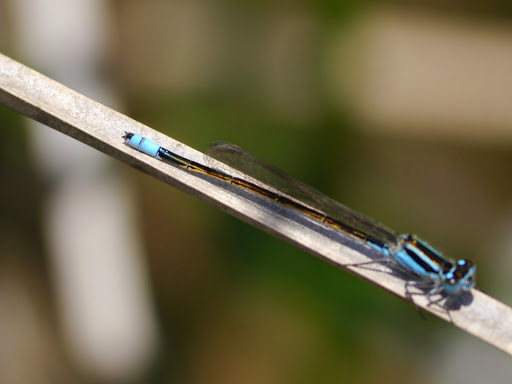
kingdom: Animalia
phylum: Arthropoda
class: Insecta
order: Odonata
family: Coenagrionidae
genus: Ischnura
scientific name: Ischnura ramburii
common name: Rambur's forktail
